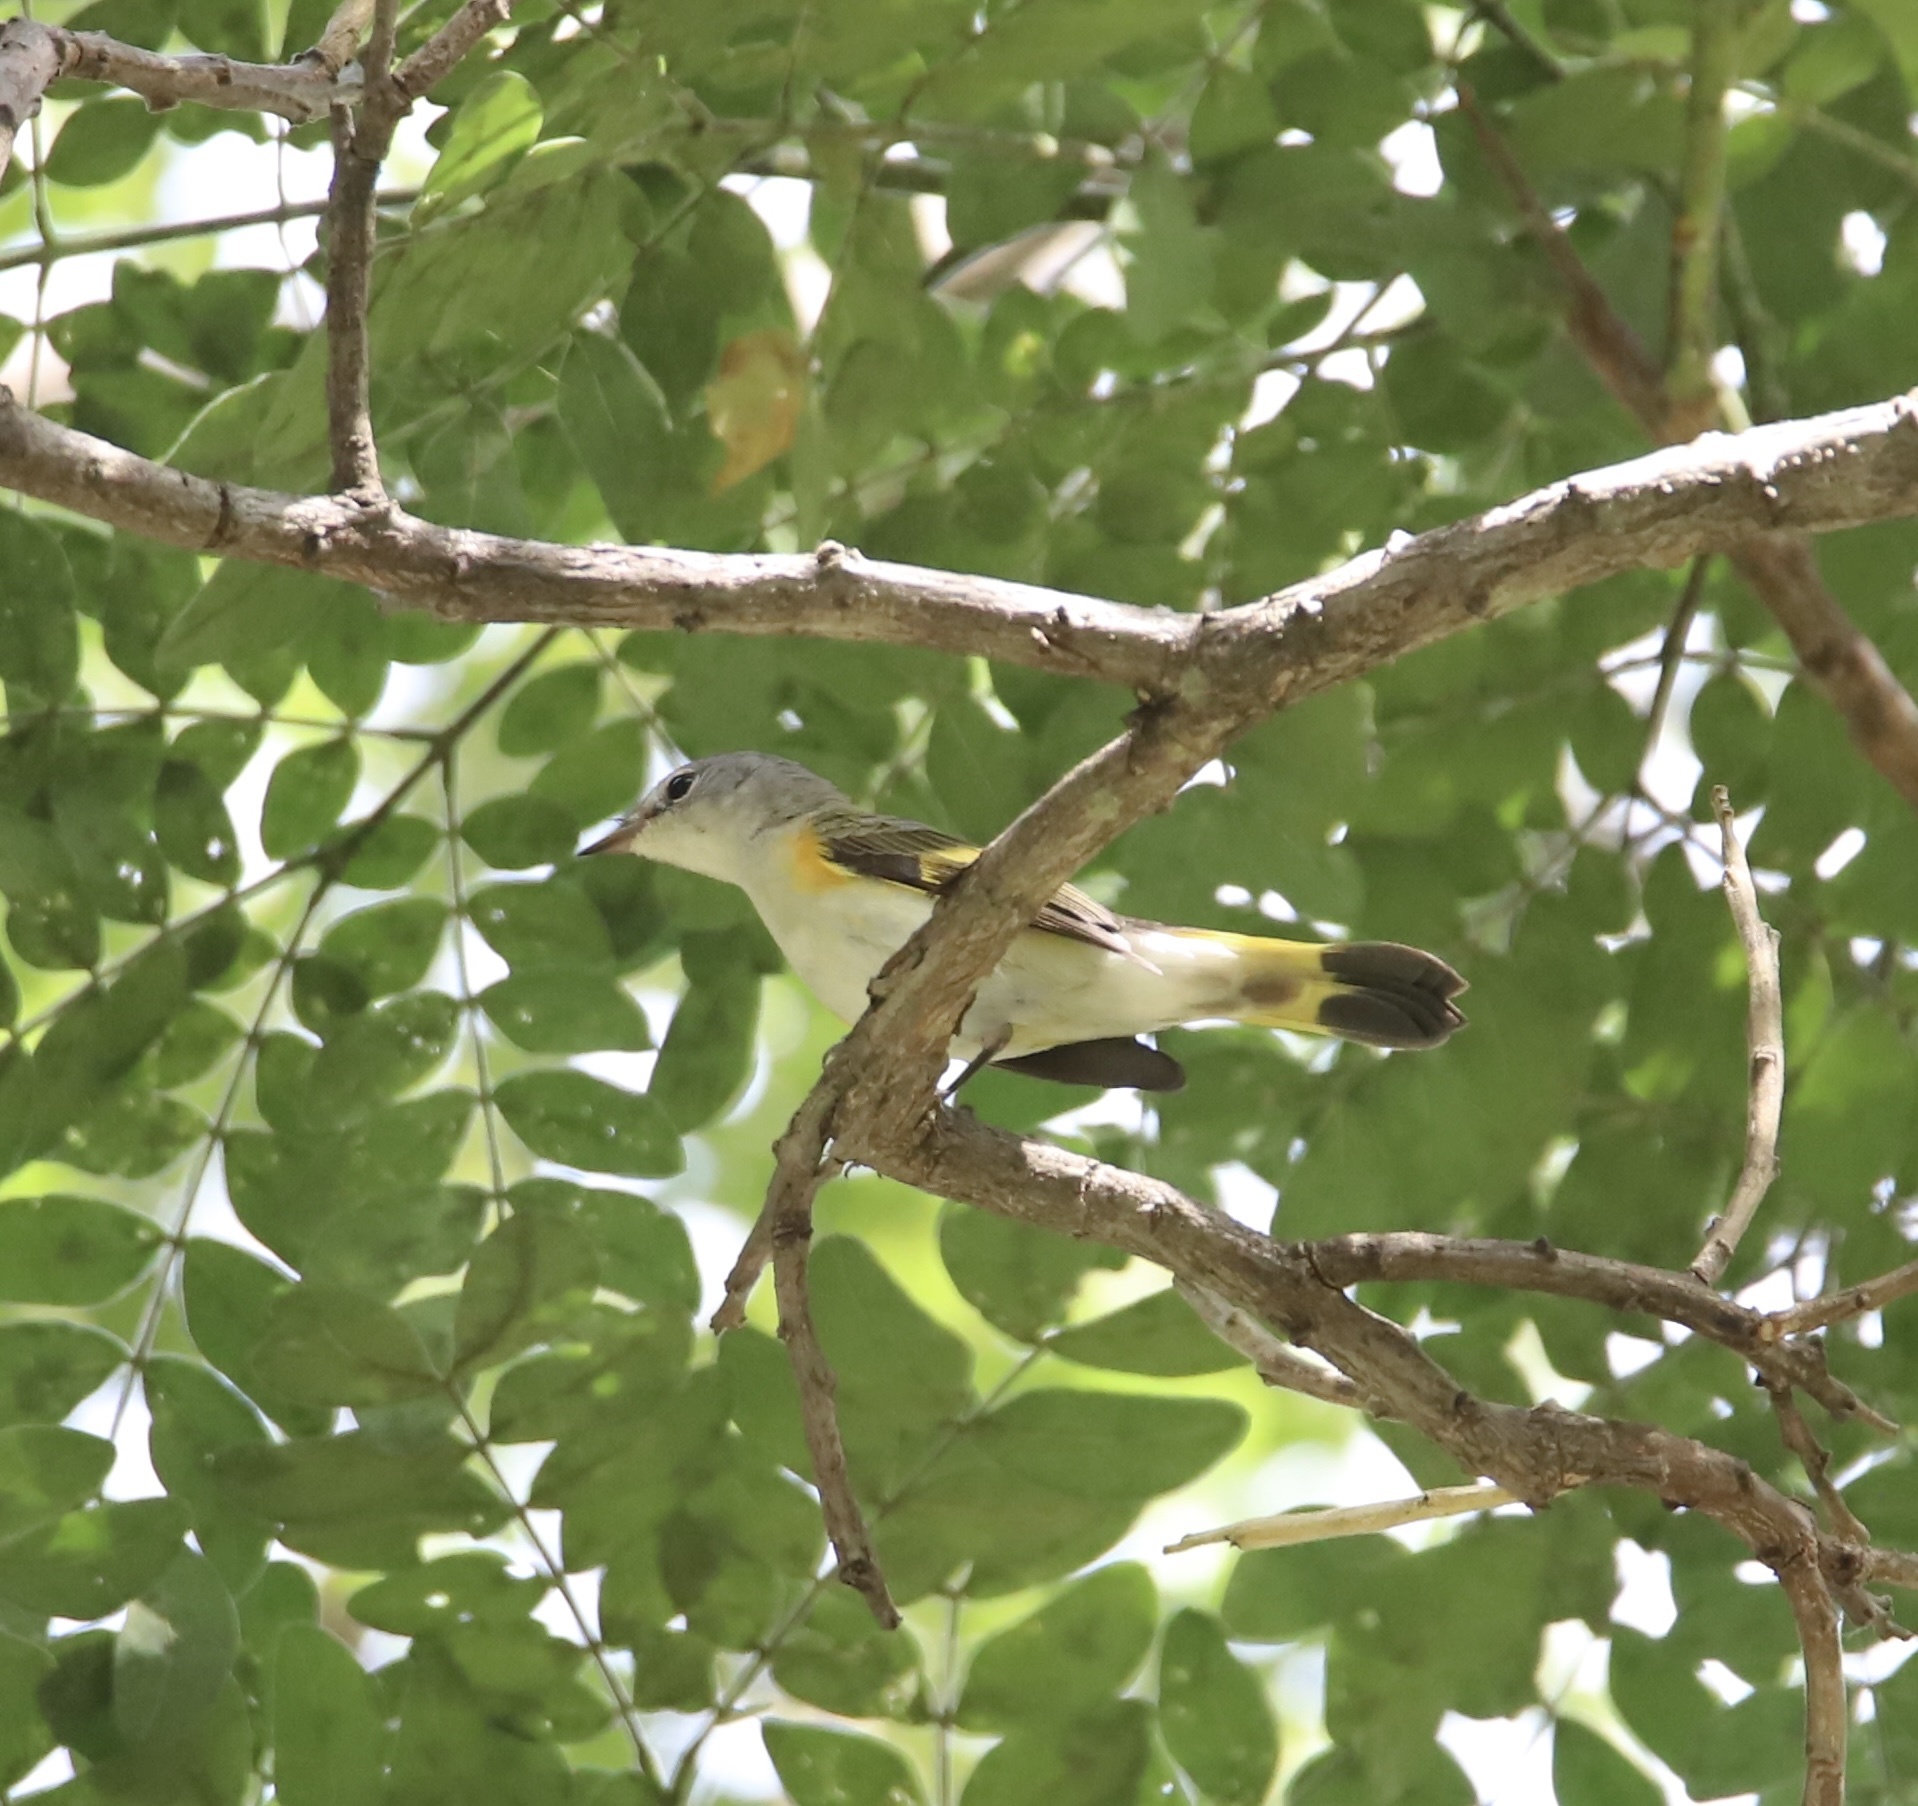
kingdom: Animalia
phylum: Chordata
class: Aves
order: Passeriformes
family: Parulidae
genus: Setophaga
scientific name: Setophaga ruticilla
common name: American redstart
